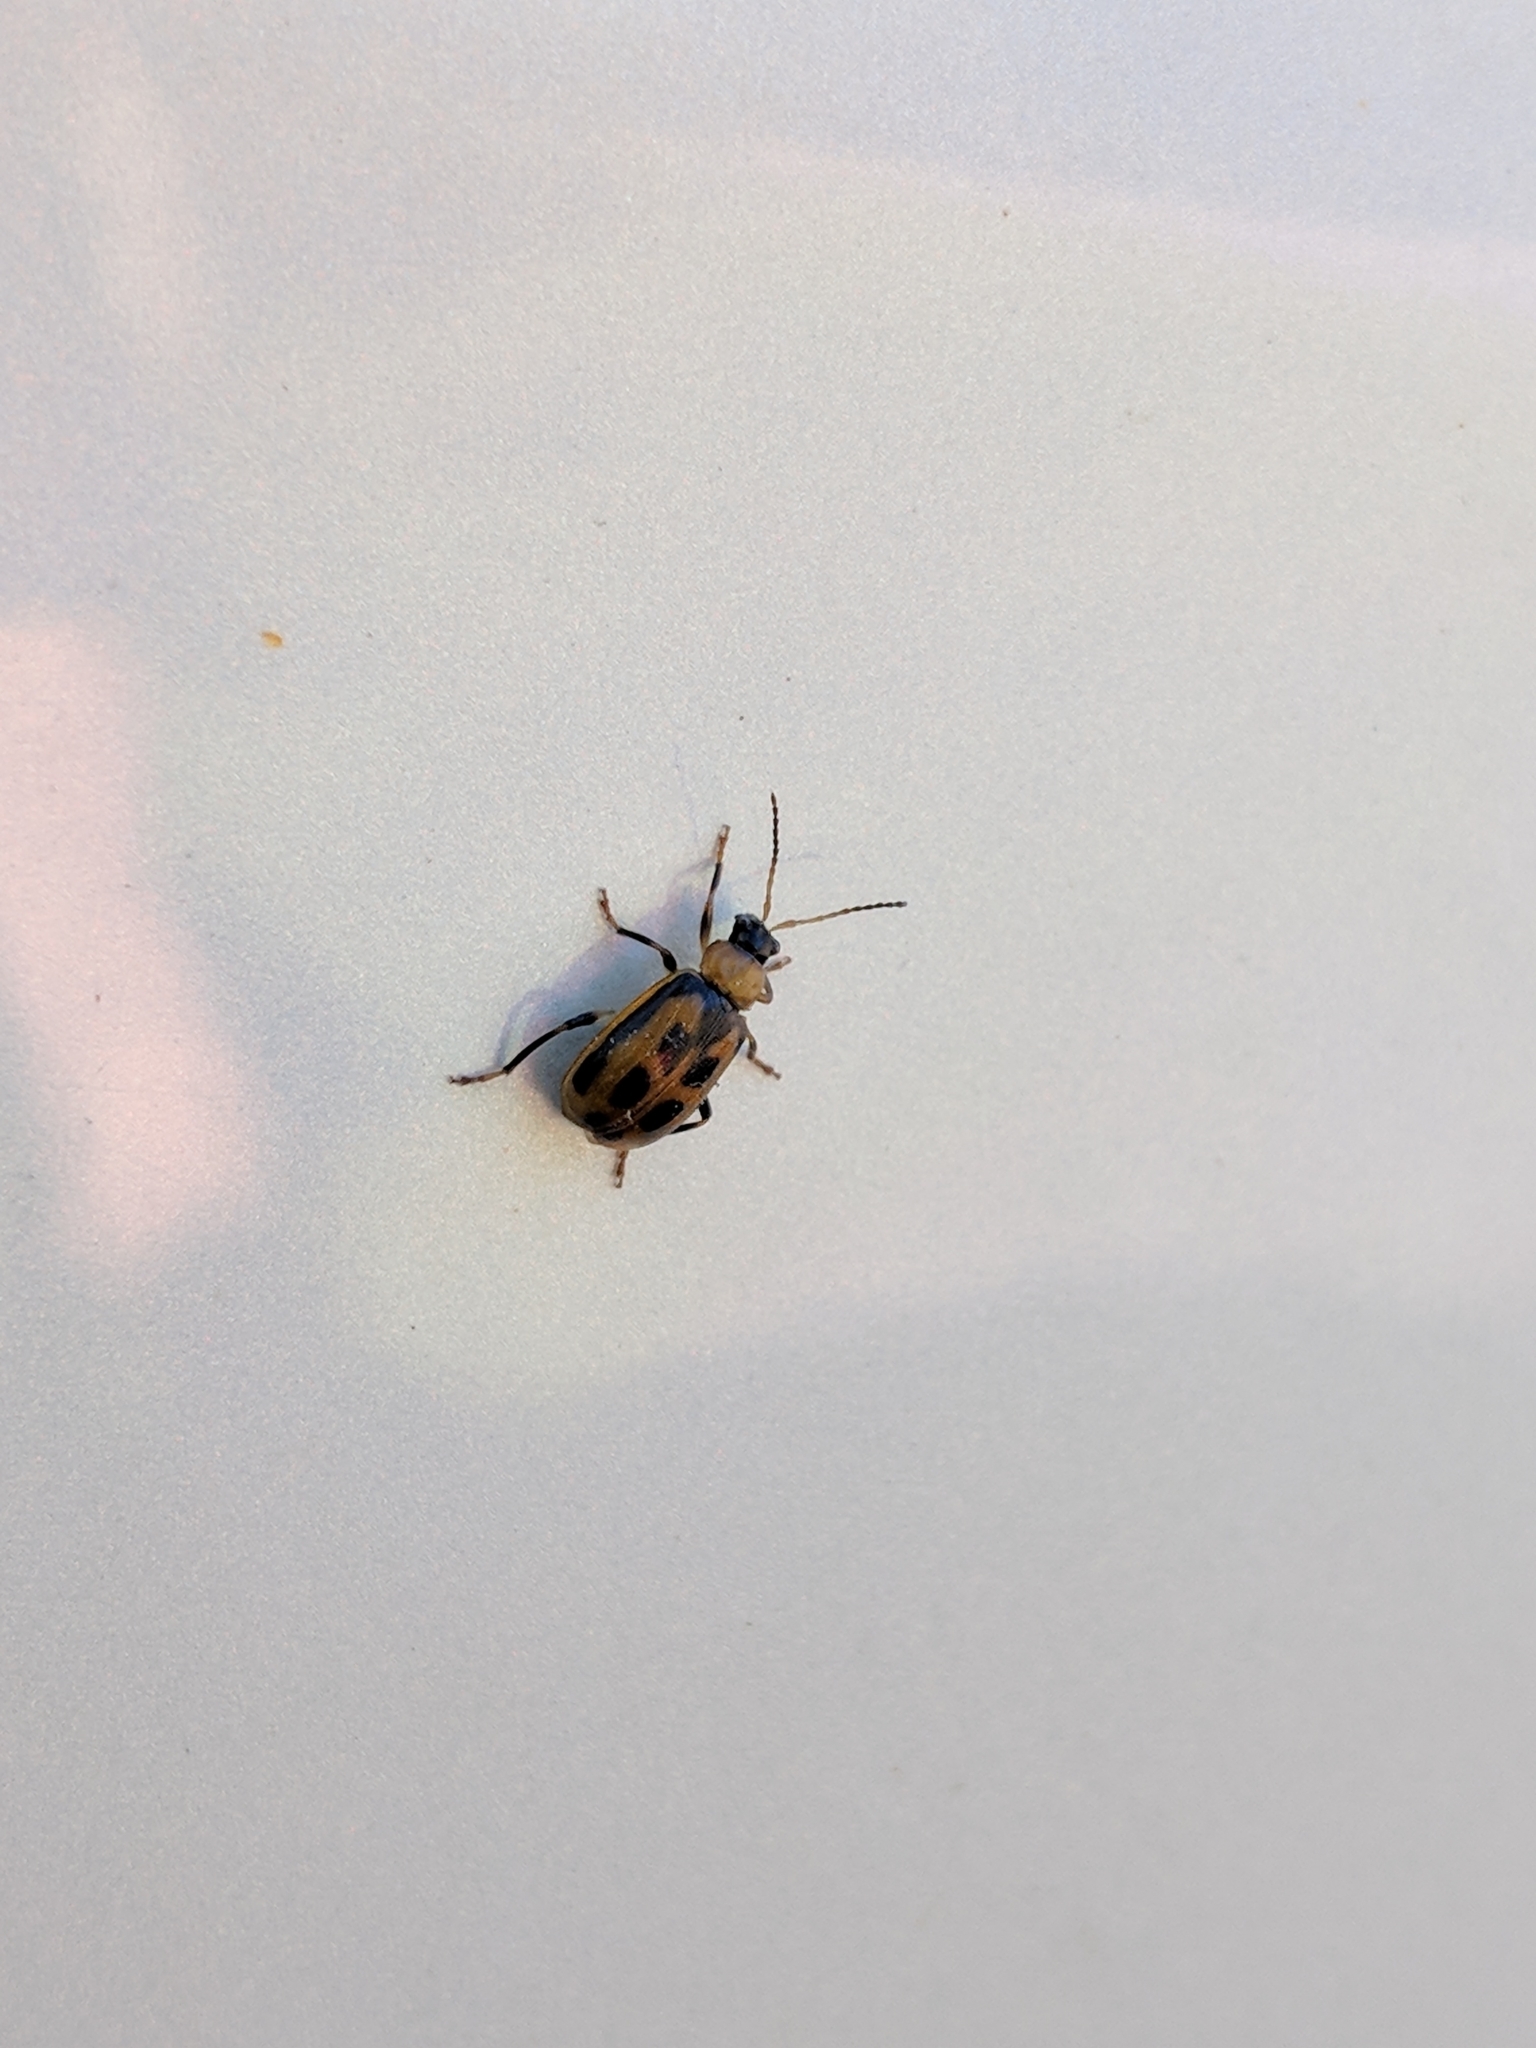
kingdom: Animalia
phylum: Arthropoda
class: Insecta
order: Coleoptera
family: Chrysomelidae
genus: Cerotoma
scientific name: Cerotoma trifurcata
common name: Bean leaf beetle
